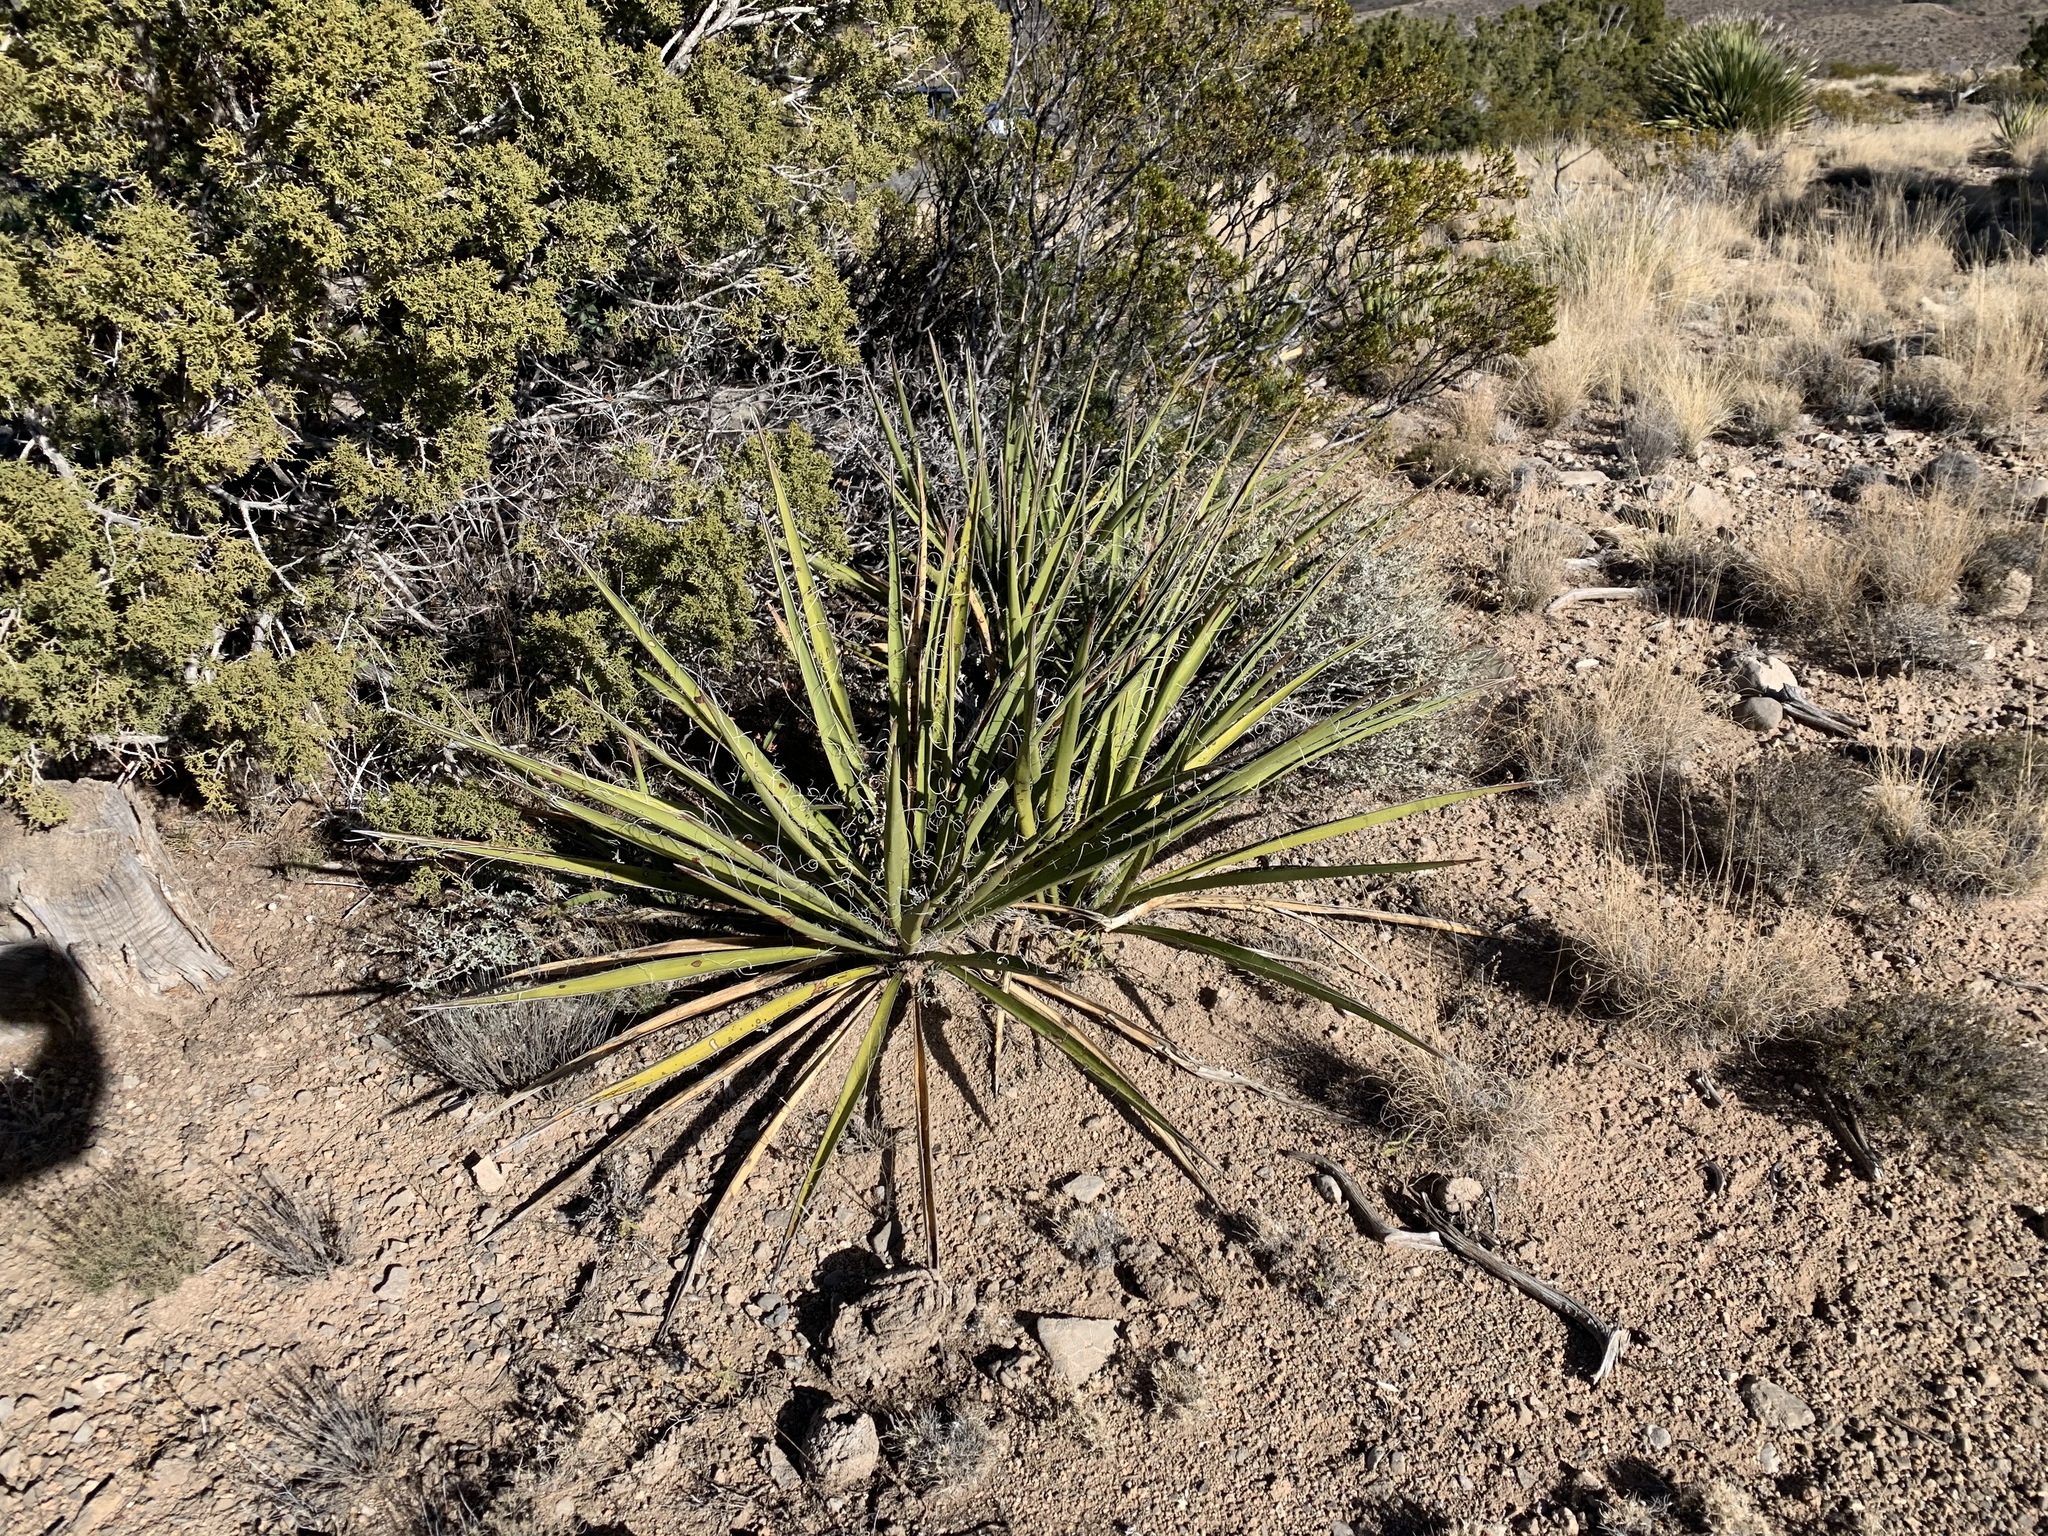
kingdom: Plantae
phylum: Tracheophyta
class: Liliopsida
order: Asparagales
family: Asparagaceae
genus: Yucca
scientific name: Yucca baccata
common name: Banana yucca
